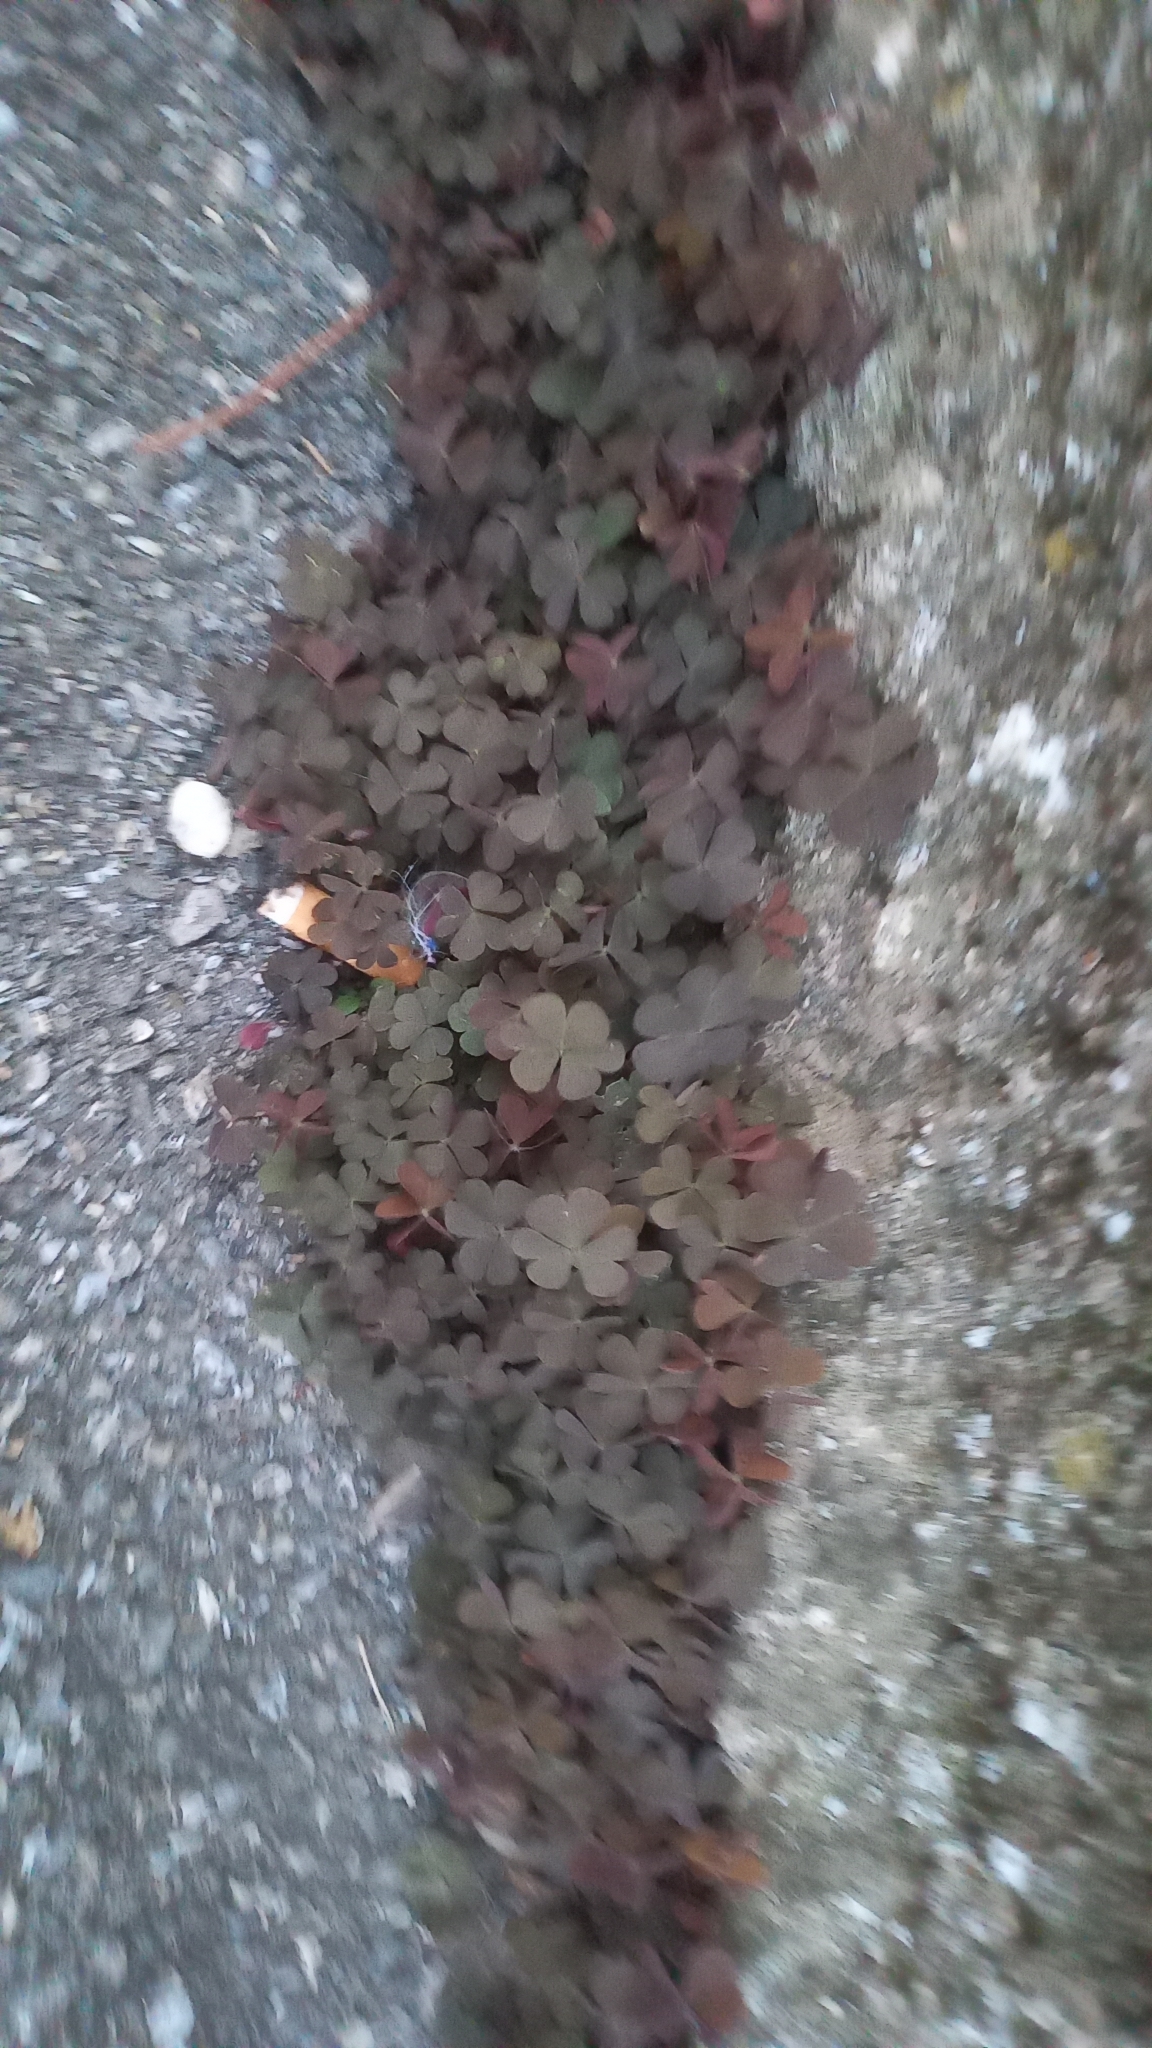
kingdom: Plantae
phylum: Tracheophyta
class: Magnoliopsida
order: Oxalidales
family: Oxalidaceae
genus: Oxalis
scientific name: Oxalis corniculata
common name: Procumbent yellow-sorrel
